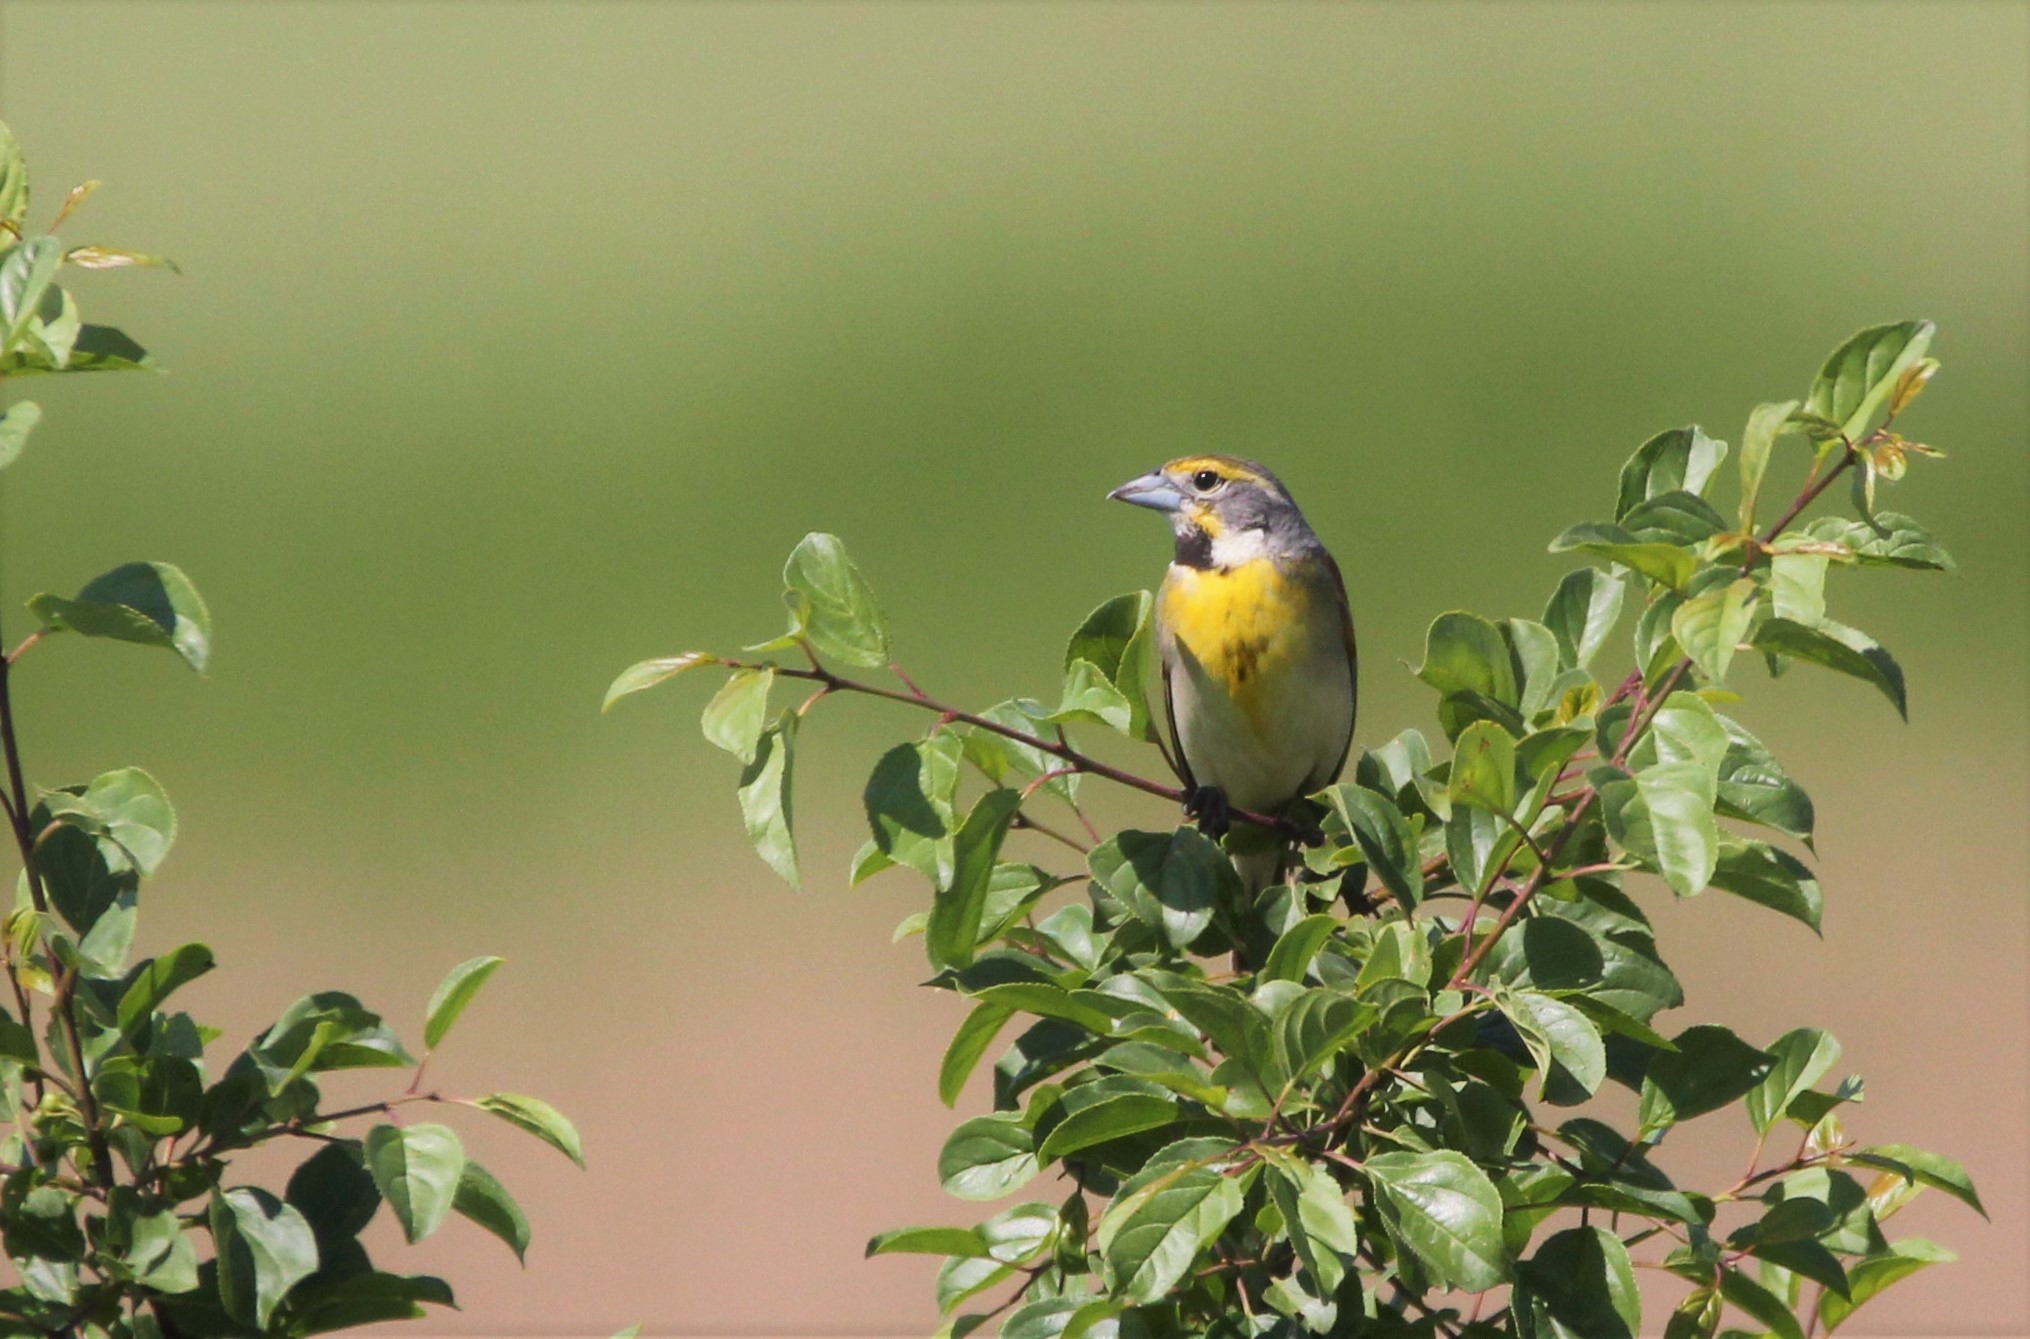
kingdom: Animalia
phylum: Chordata
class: Aves
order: Passeriformes
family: Cardinalidae
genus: Spiza
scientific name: Spiza americana
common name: Dickcissel
